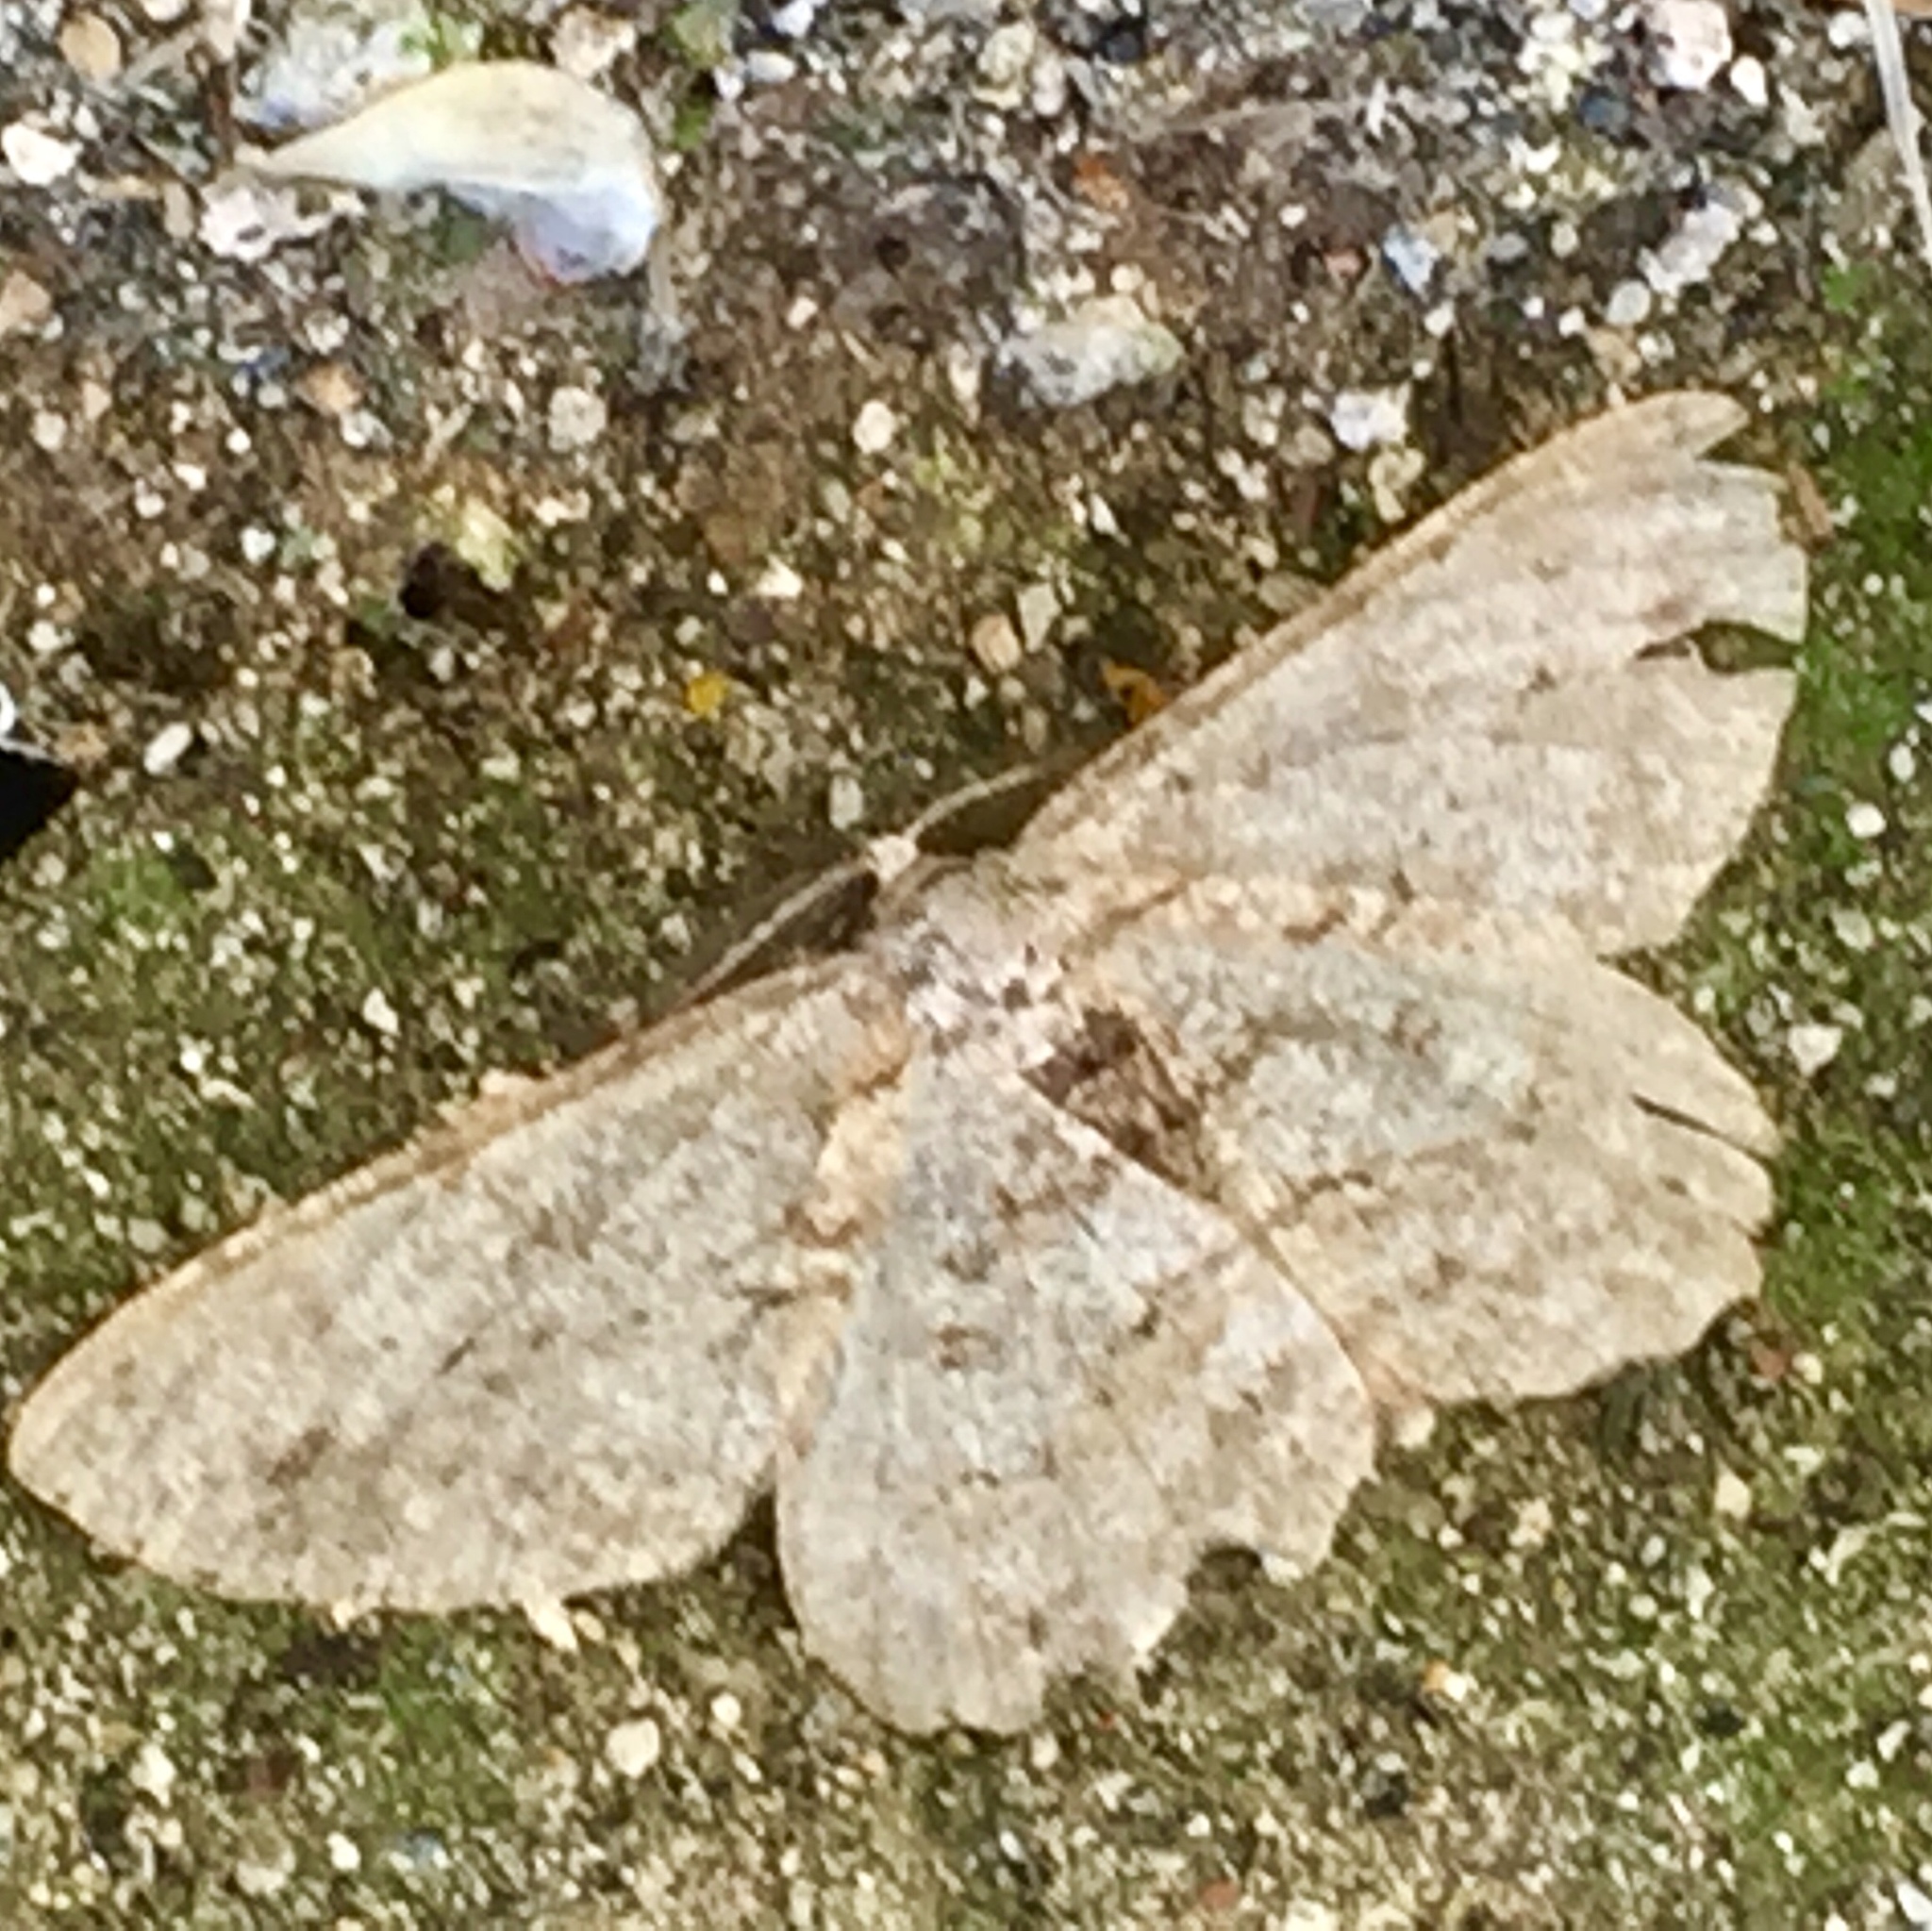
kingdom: Animalia
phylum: Arthropoda
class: Insecta
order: Lepidoptera
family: Geometridae
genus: Hypomecis
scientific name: Hypomecis punctinalis
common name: Pale oak beauty
